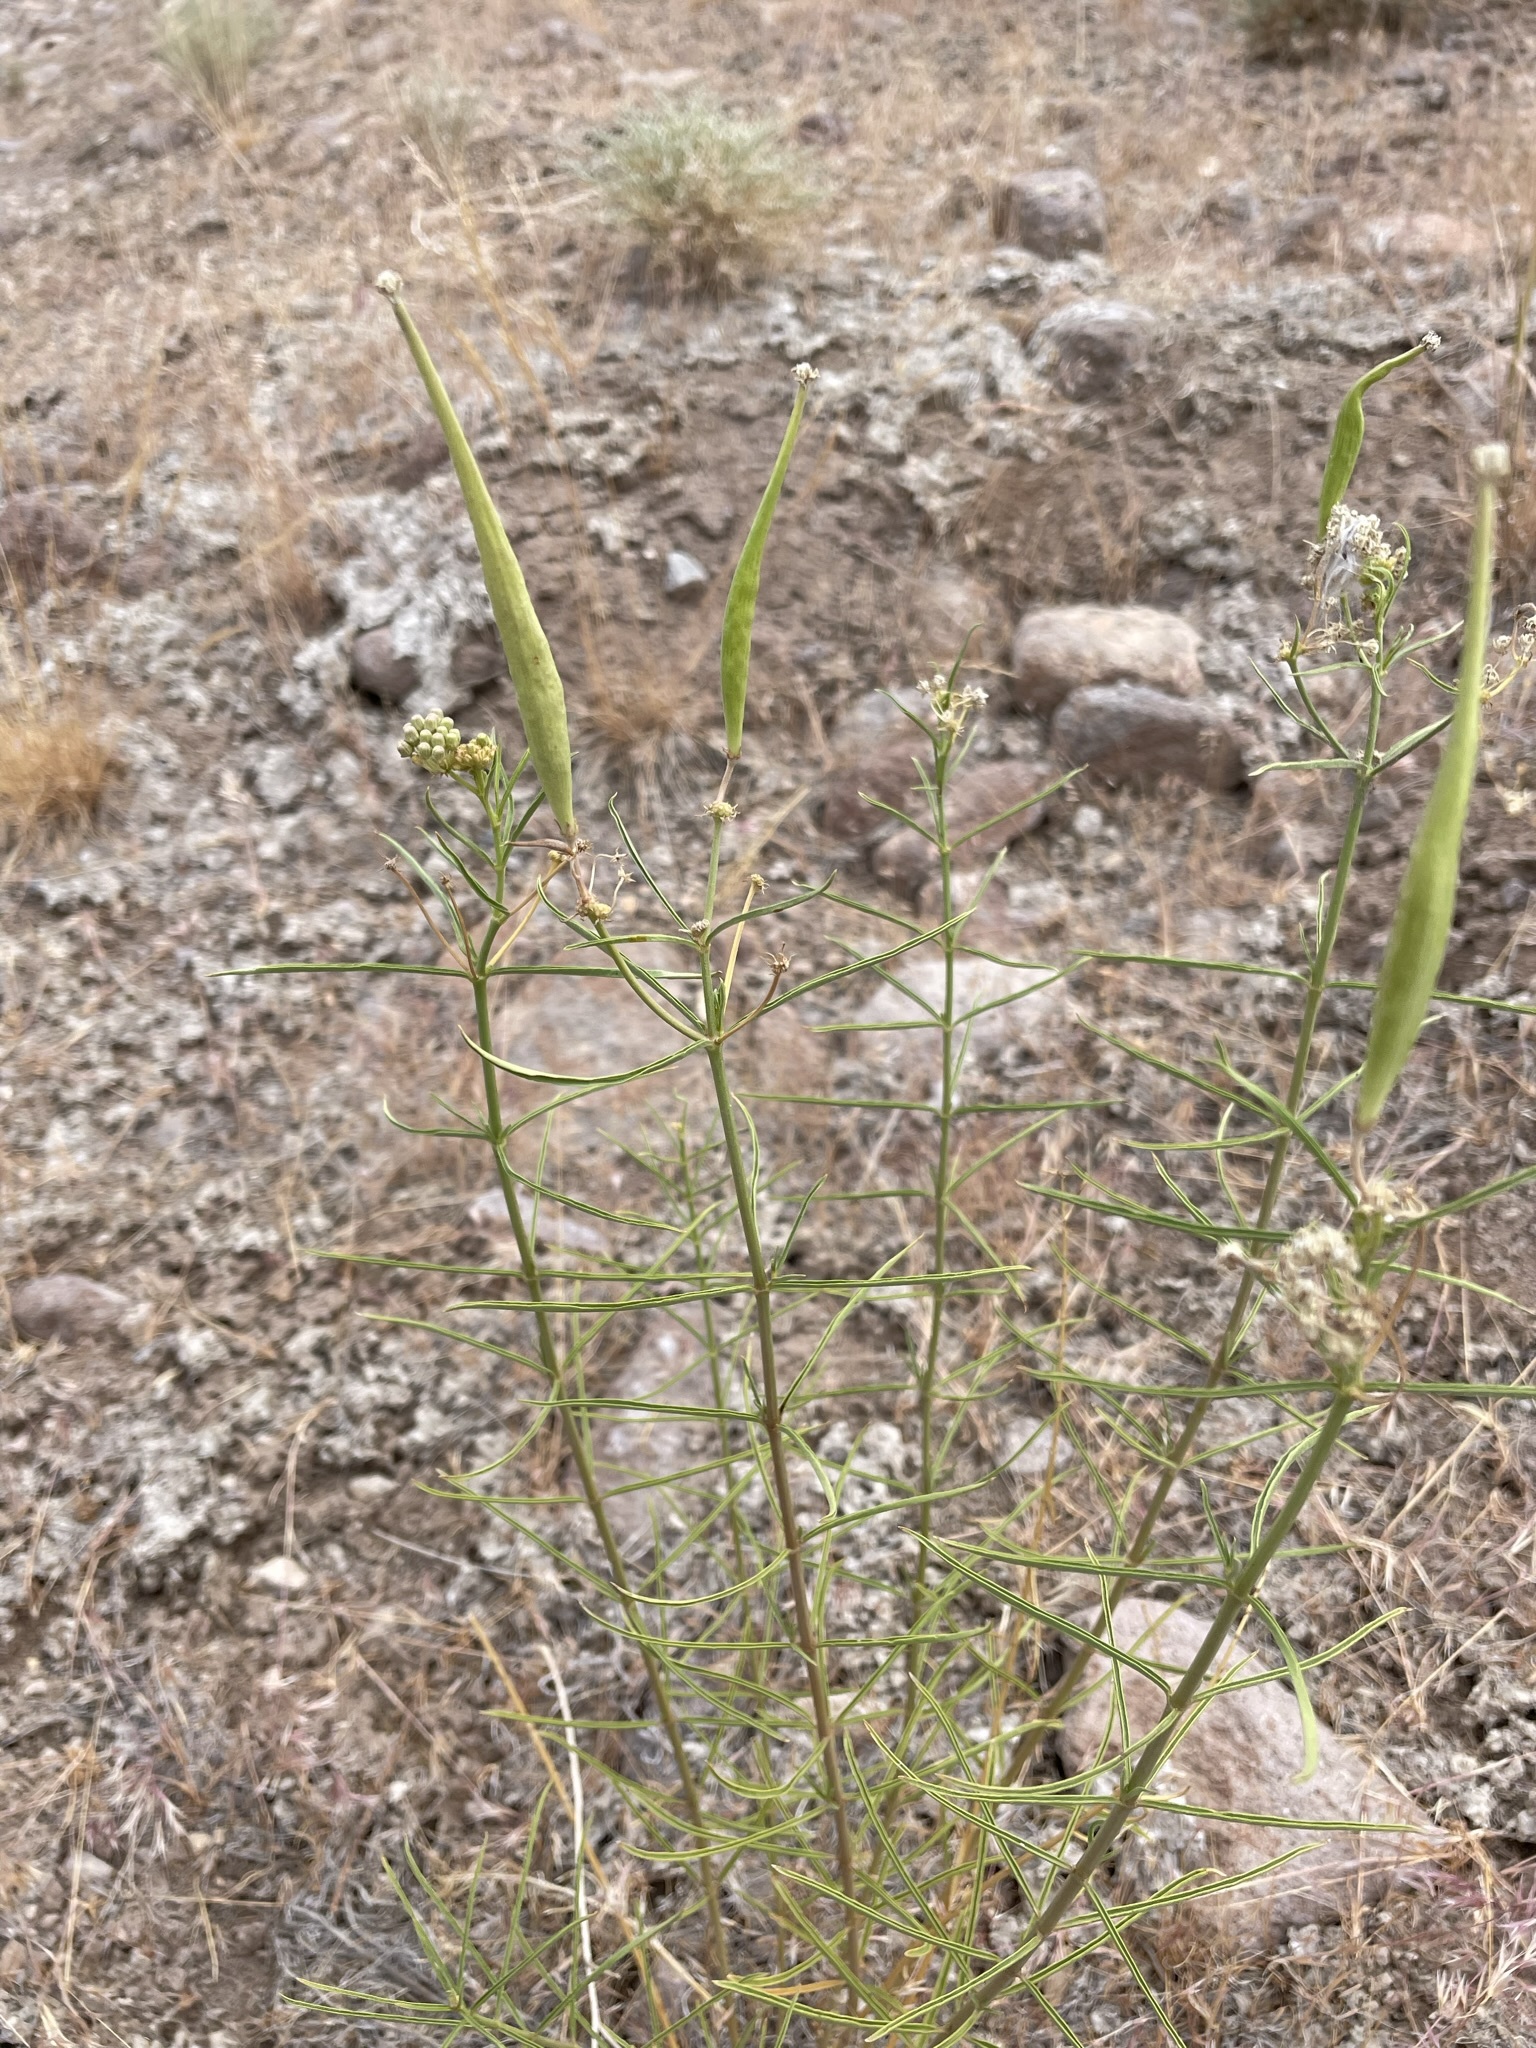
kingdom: Plantae
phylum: Tracheophyta
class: Magnoliopsida
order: Gentianales
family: Apocynaceae
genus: Asclepias
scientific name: Asclepias fascicularis
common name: Mexican milkweed
